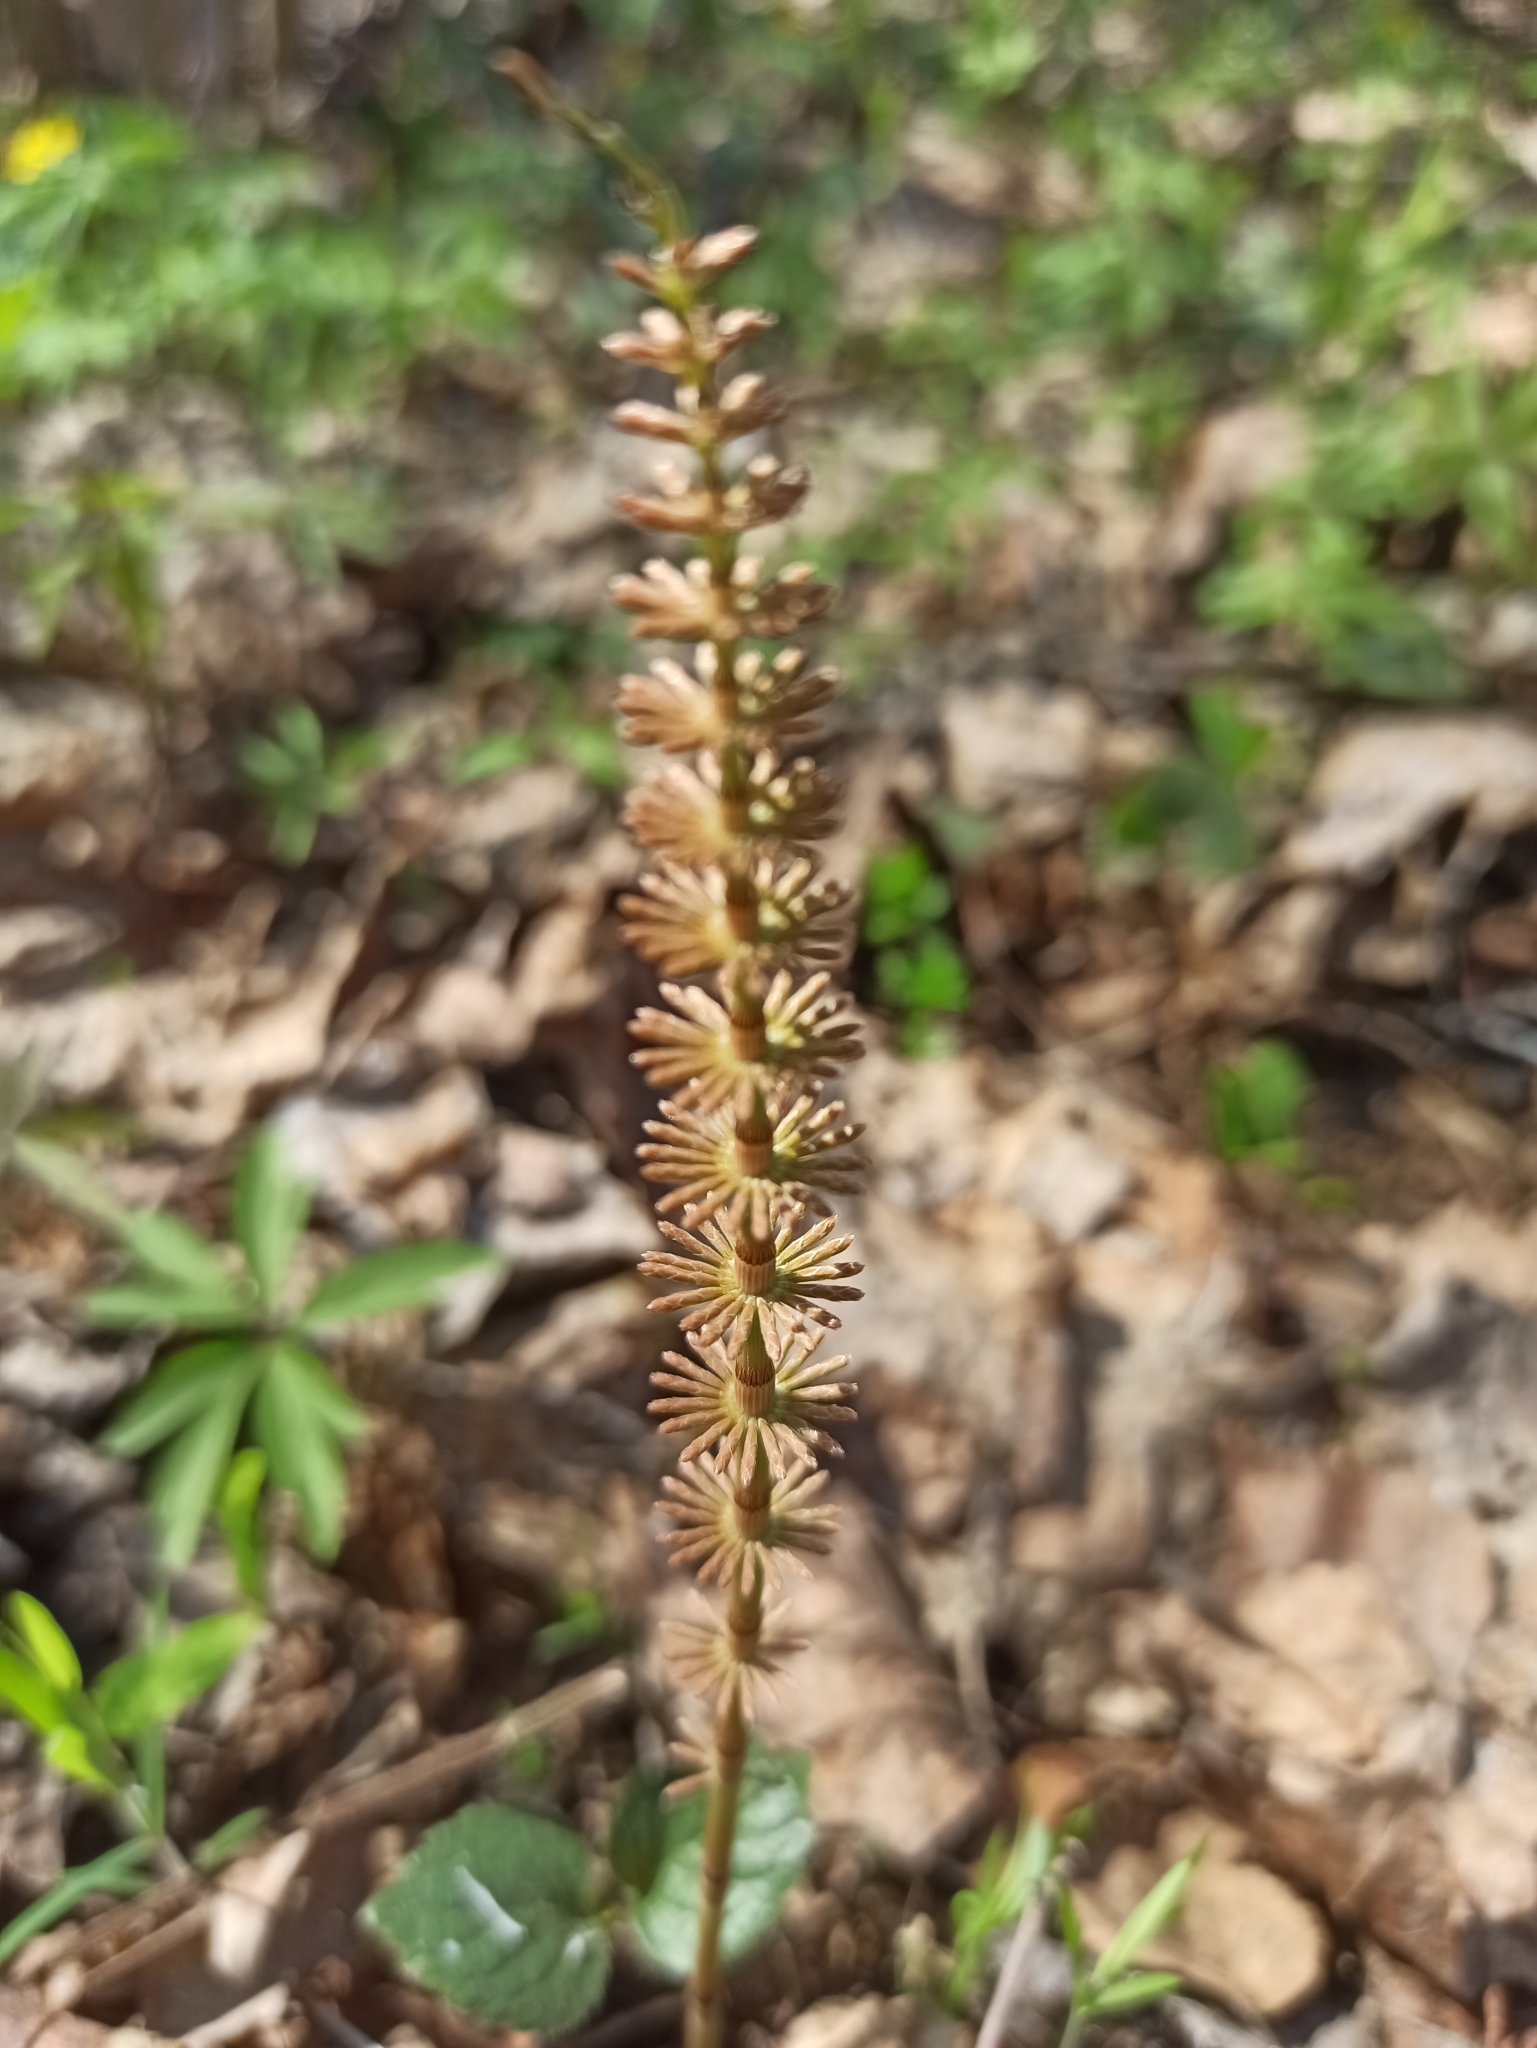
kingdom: Plantae
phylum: Tracheophyta
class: Polypodiopsida
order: Equisetales
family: Equisetaceae
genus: Equisetum
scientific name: Equisetum pratense
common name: Meadow horsetail
